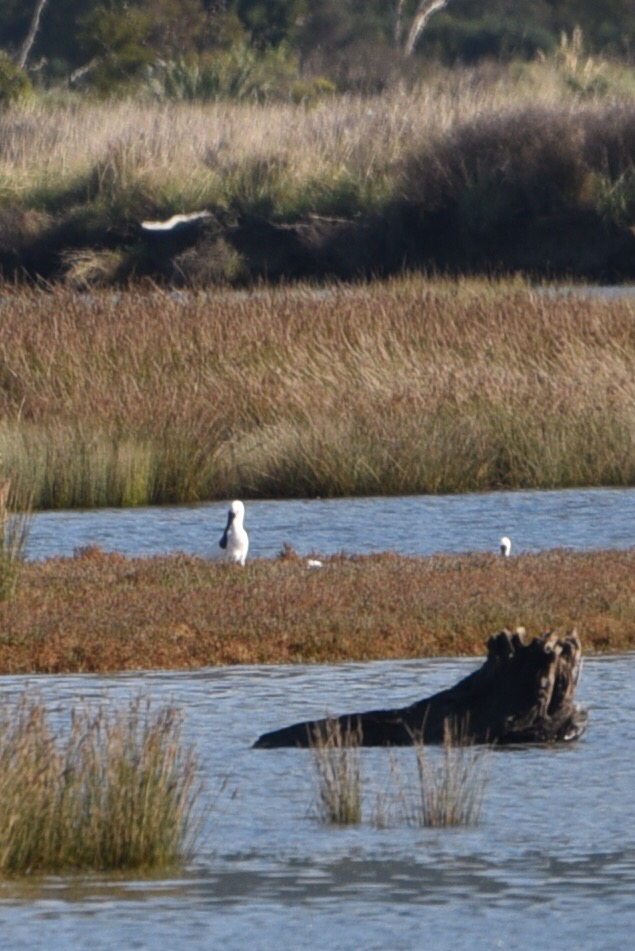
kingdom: Animalia
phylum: Chordata
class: Aves
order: Pelecaniformes
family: Threskiornithidae
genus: Platalea
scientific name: Platalea regia
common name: Royal spoonbill
